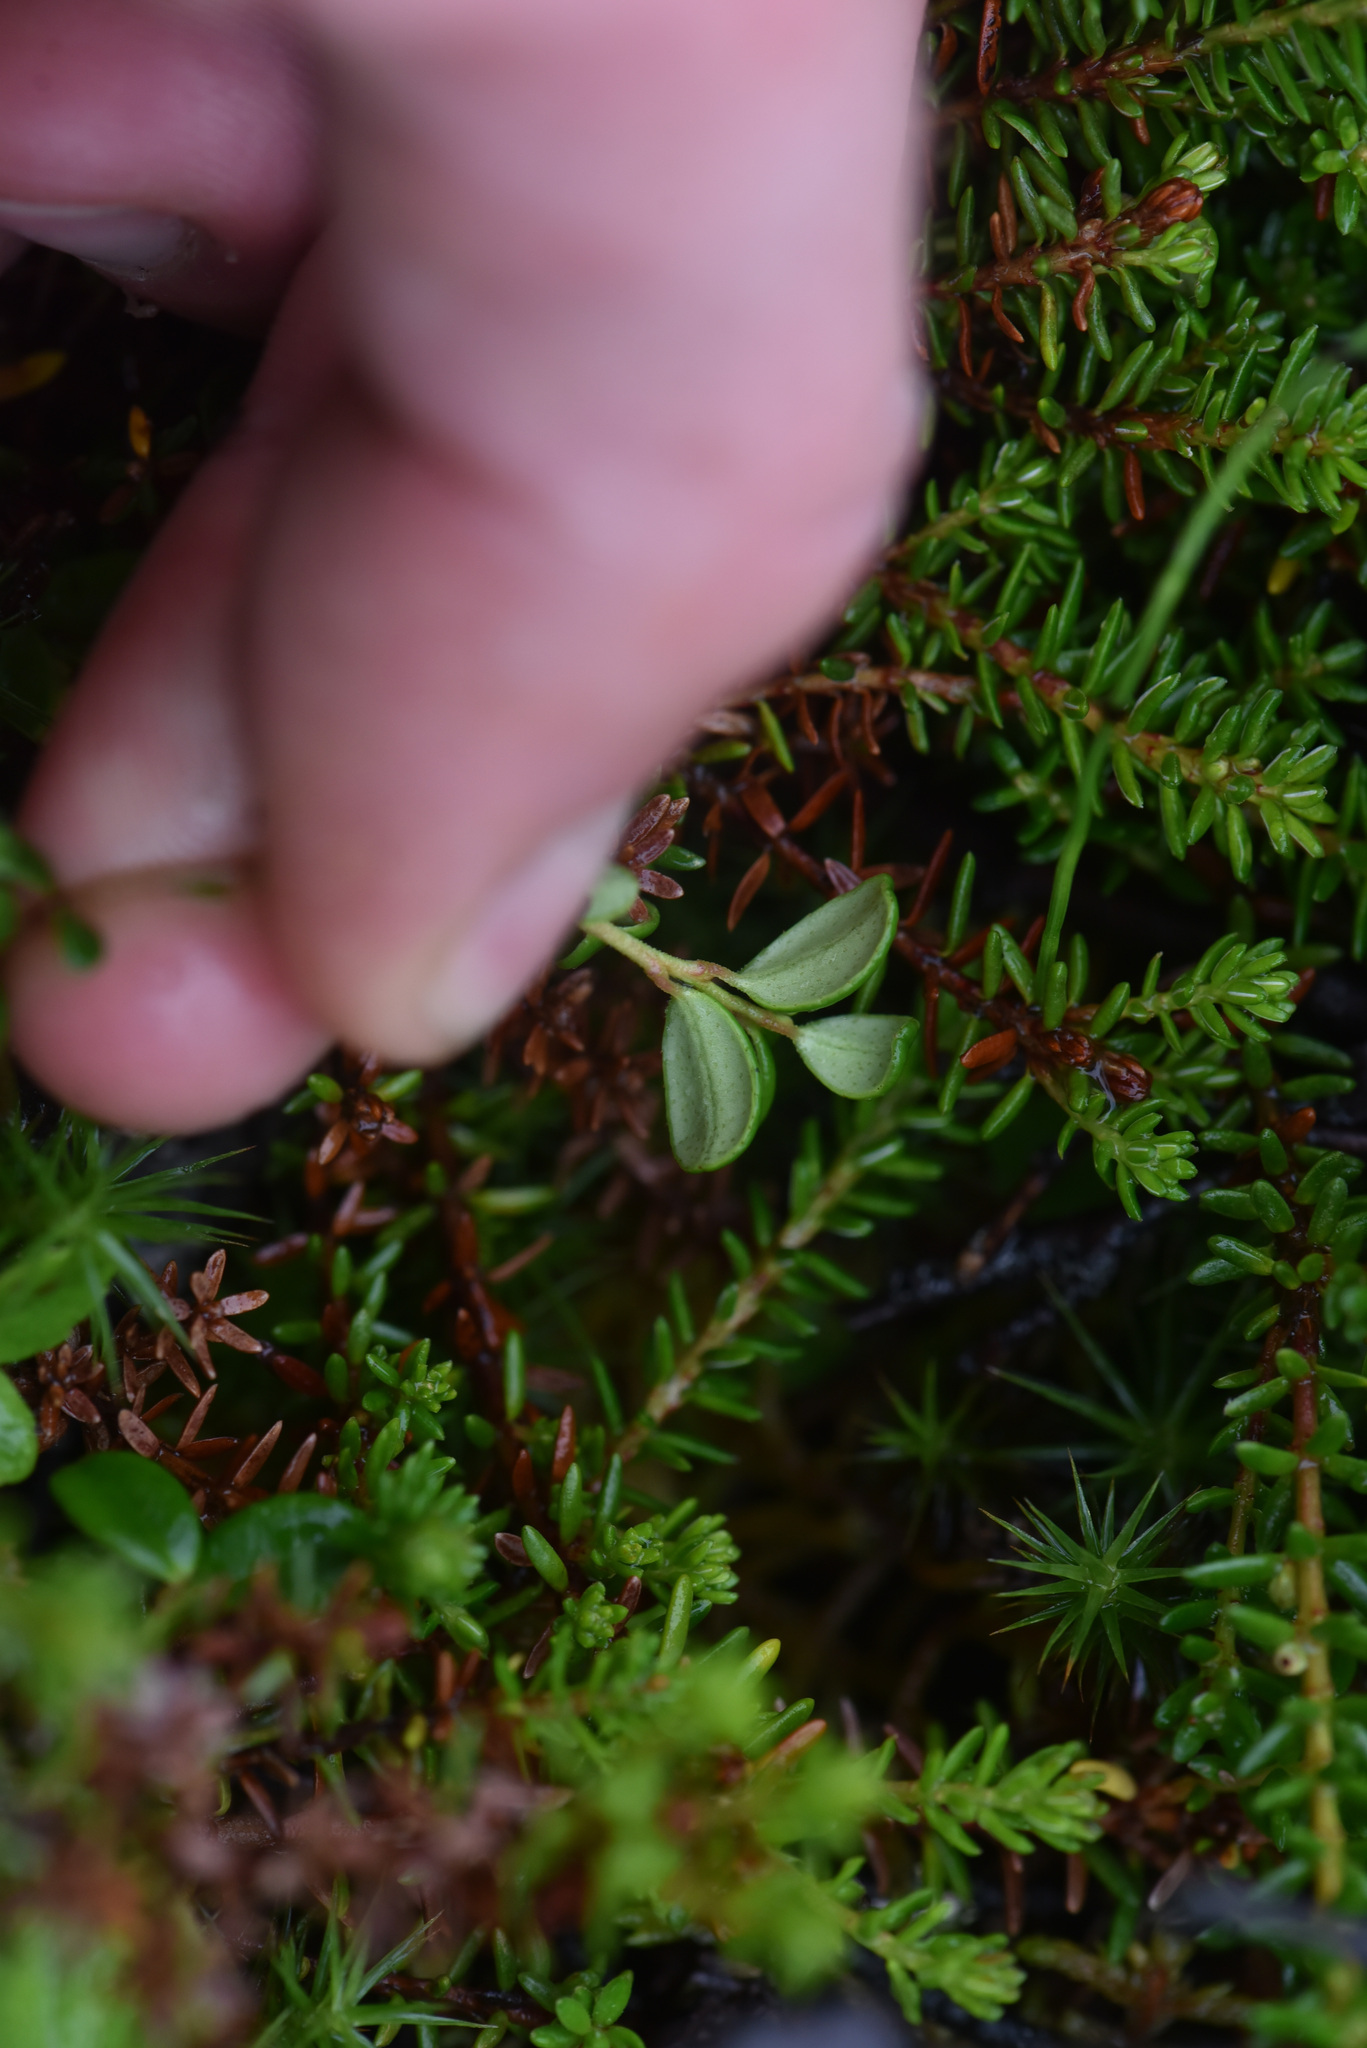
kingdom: Plantae
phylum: Tracheophyta
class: Magnoliopsida
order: Ericales
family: Ericaceae
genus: Vaccinium
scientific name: Vaccinium vitis-idaea
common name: Cowberry
